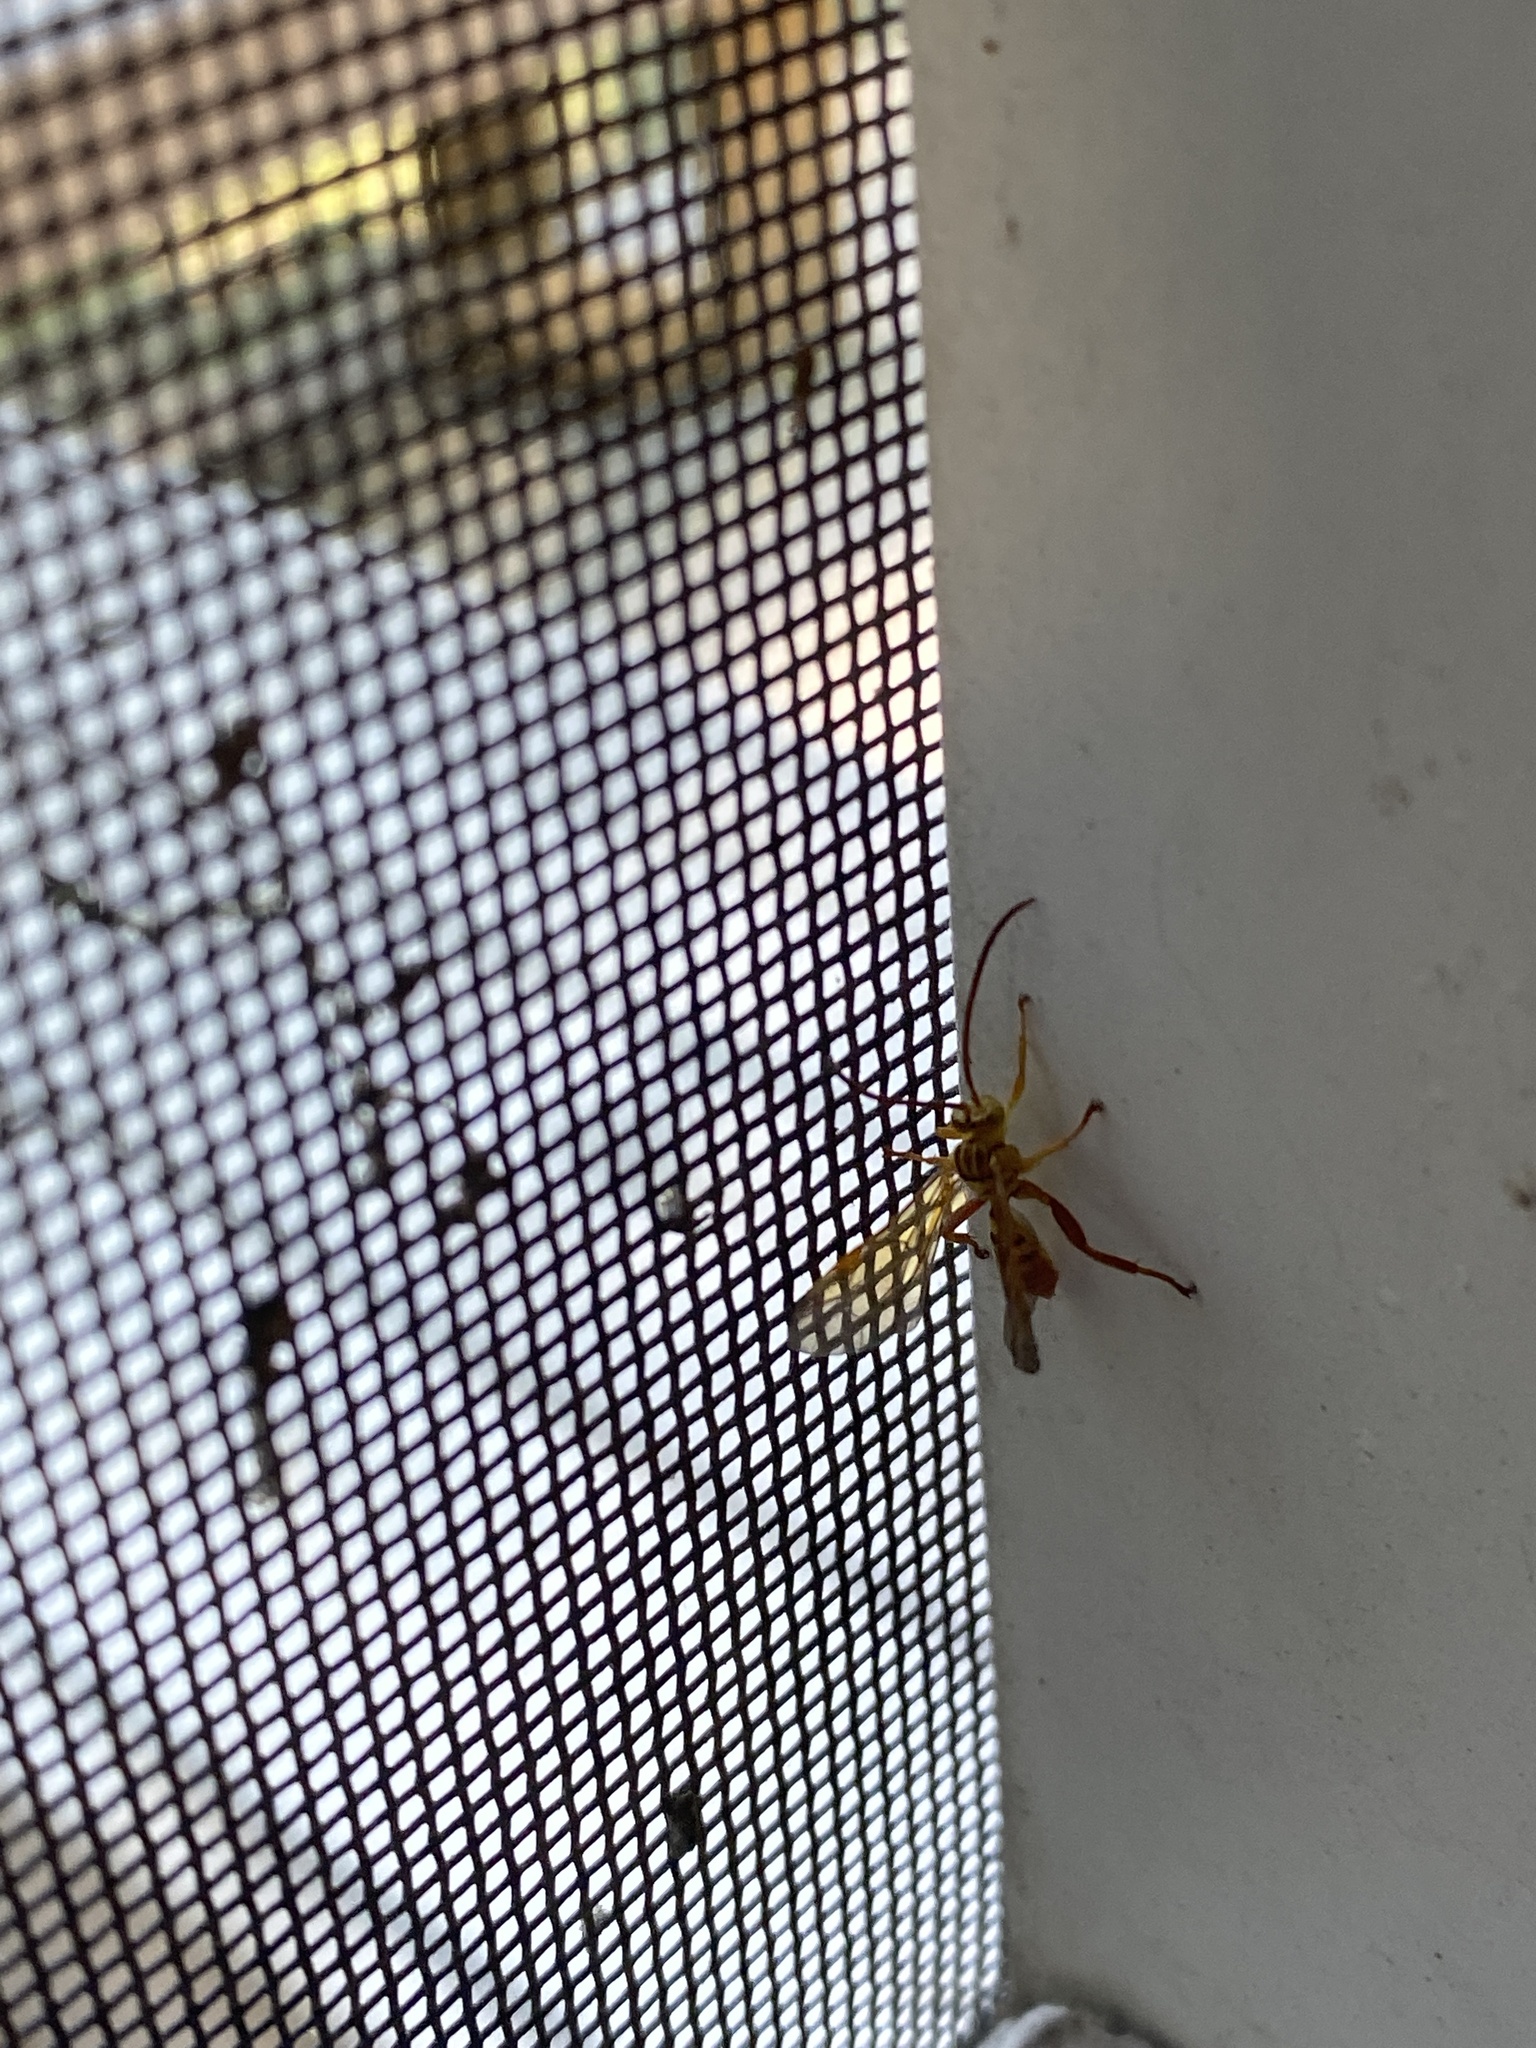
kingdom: Animalia
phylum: Arthropoda
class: Insecta
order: Hymenoptera
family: Ichneumonidae
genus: Neotheronia
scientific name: Neotheronia bicincta
